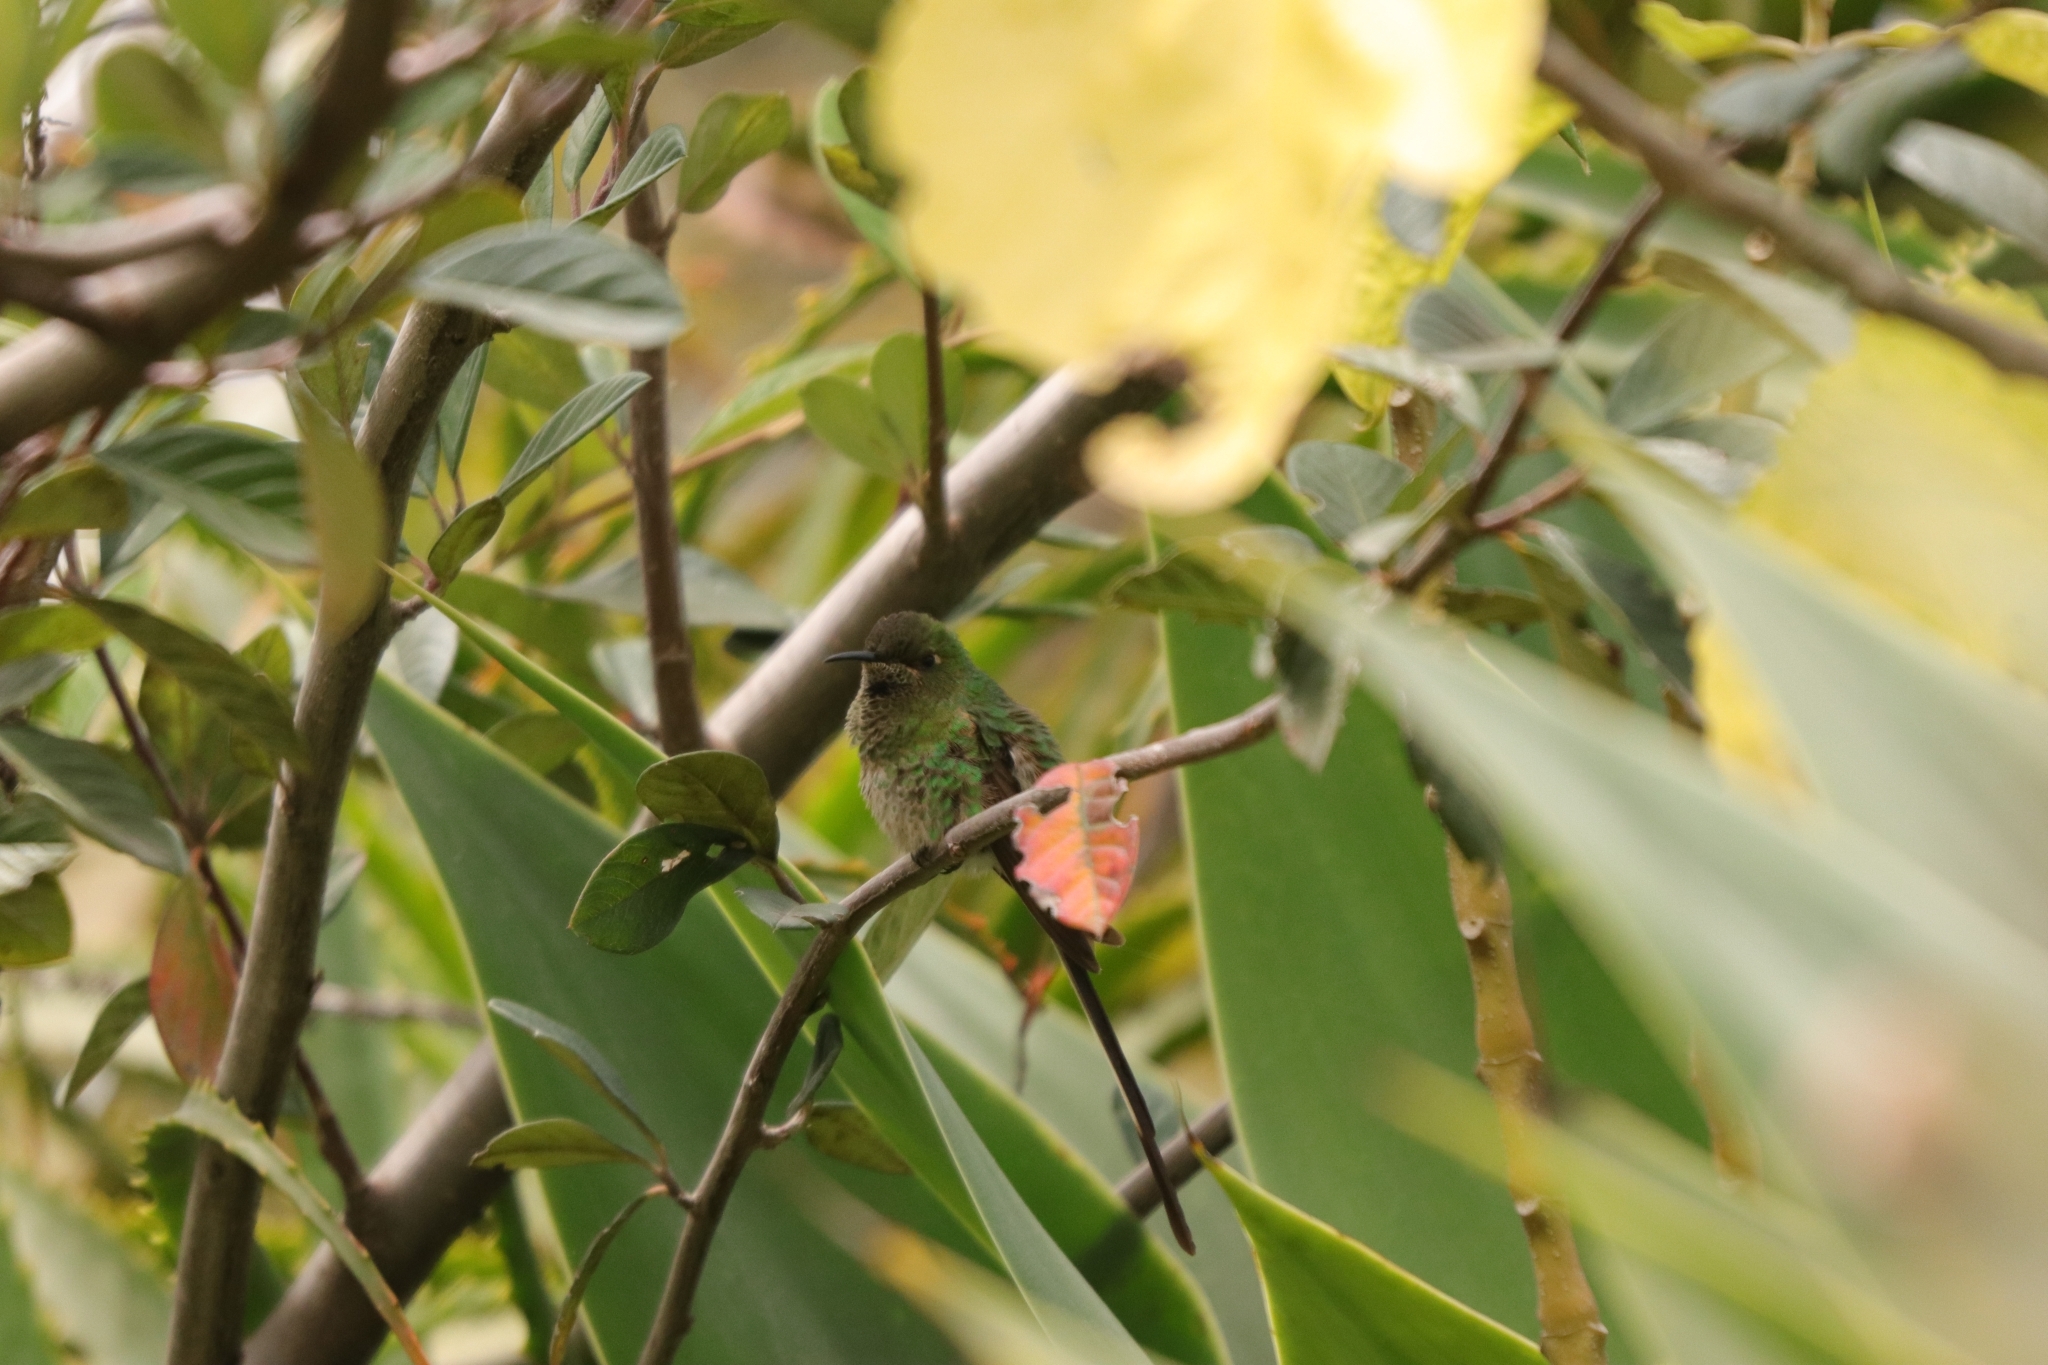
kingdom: Animalia
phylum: Chordata
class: Aves
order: Apodiformes
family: Trochilidae
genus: Lesbia
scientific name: Lesbia victoriae
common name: Black-tailed trainbearer
